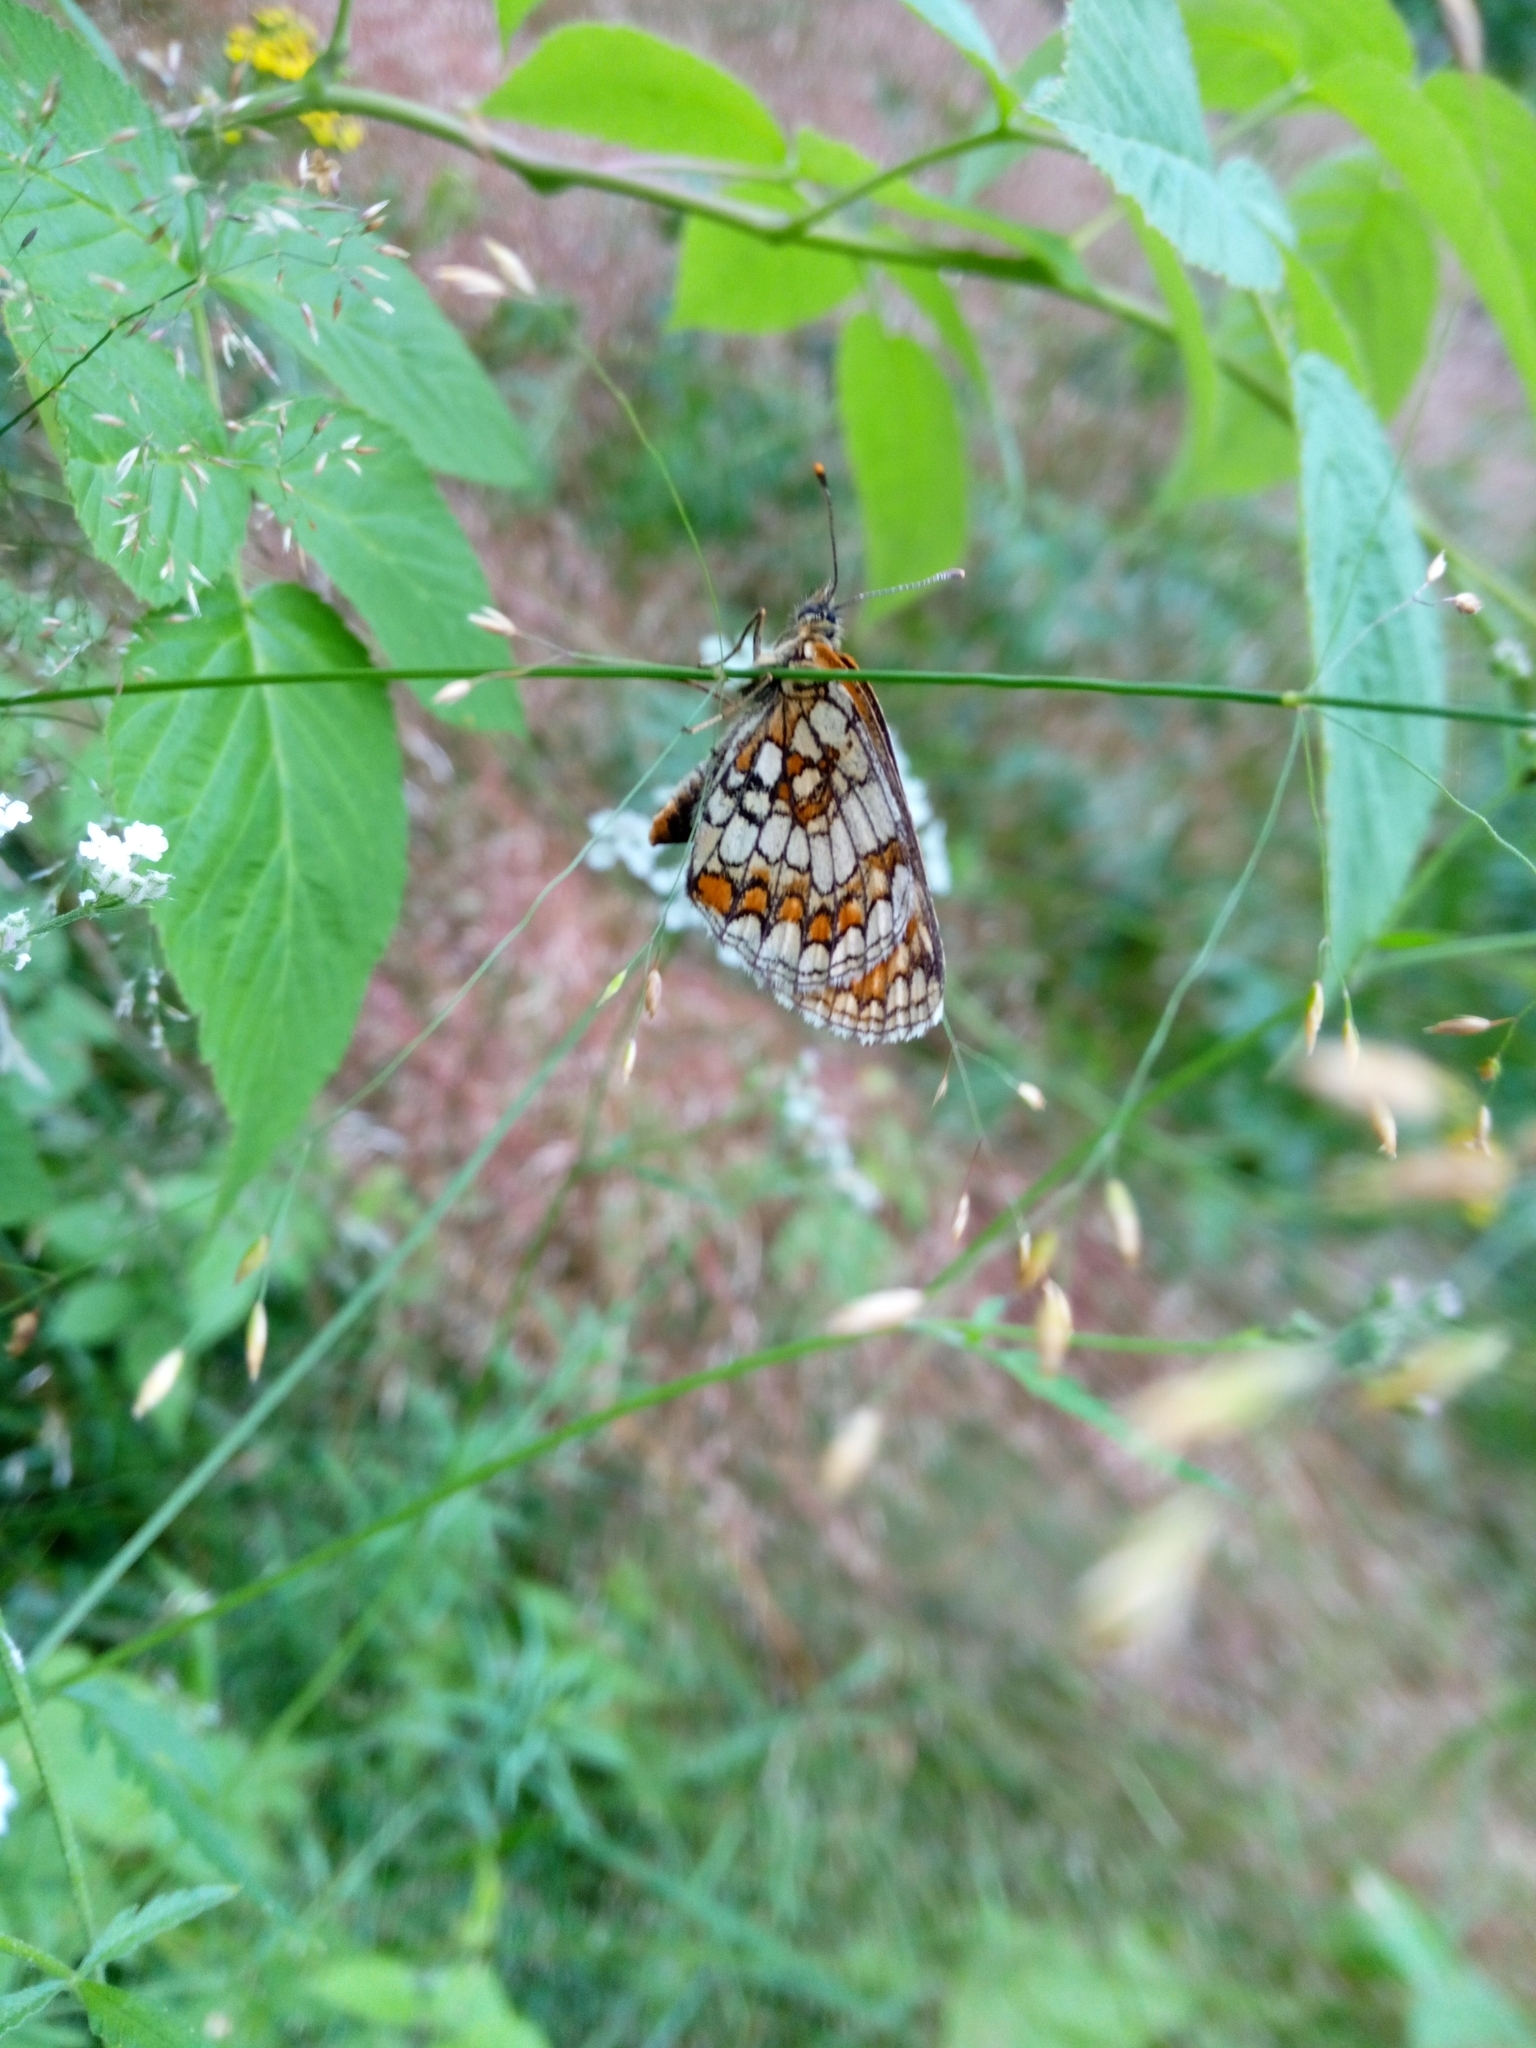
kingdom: Animalia
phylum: Arthropoda
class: Insecta
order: Lepidoptera
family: Nymphalidae
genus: Melitaea
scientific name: Melitaea athalia
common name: Heath fritillary
